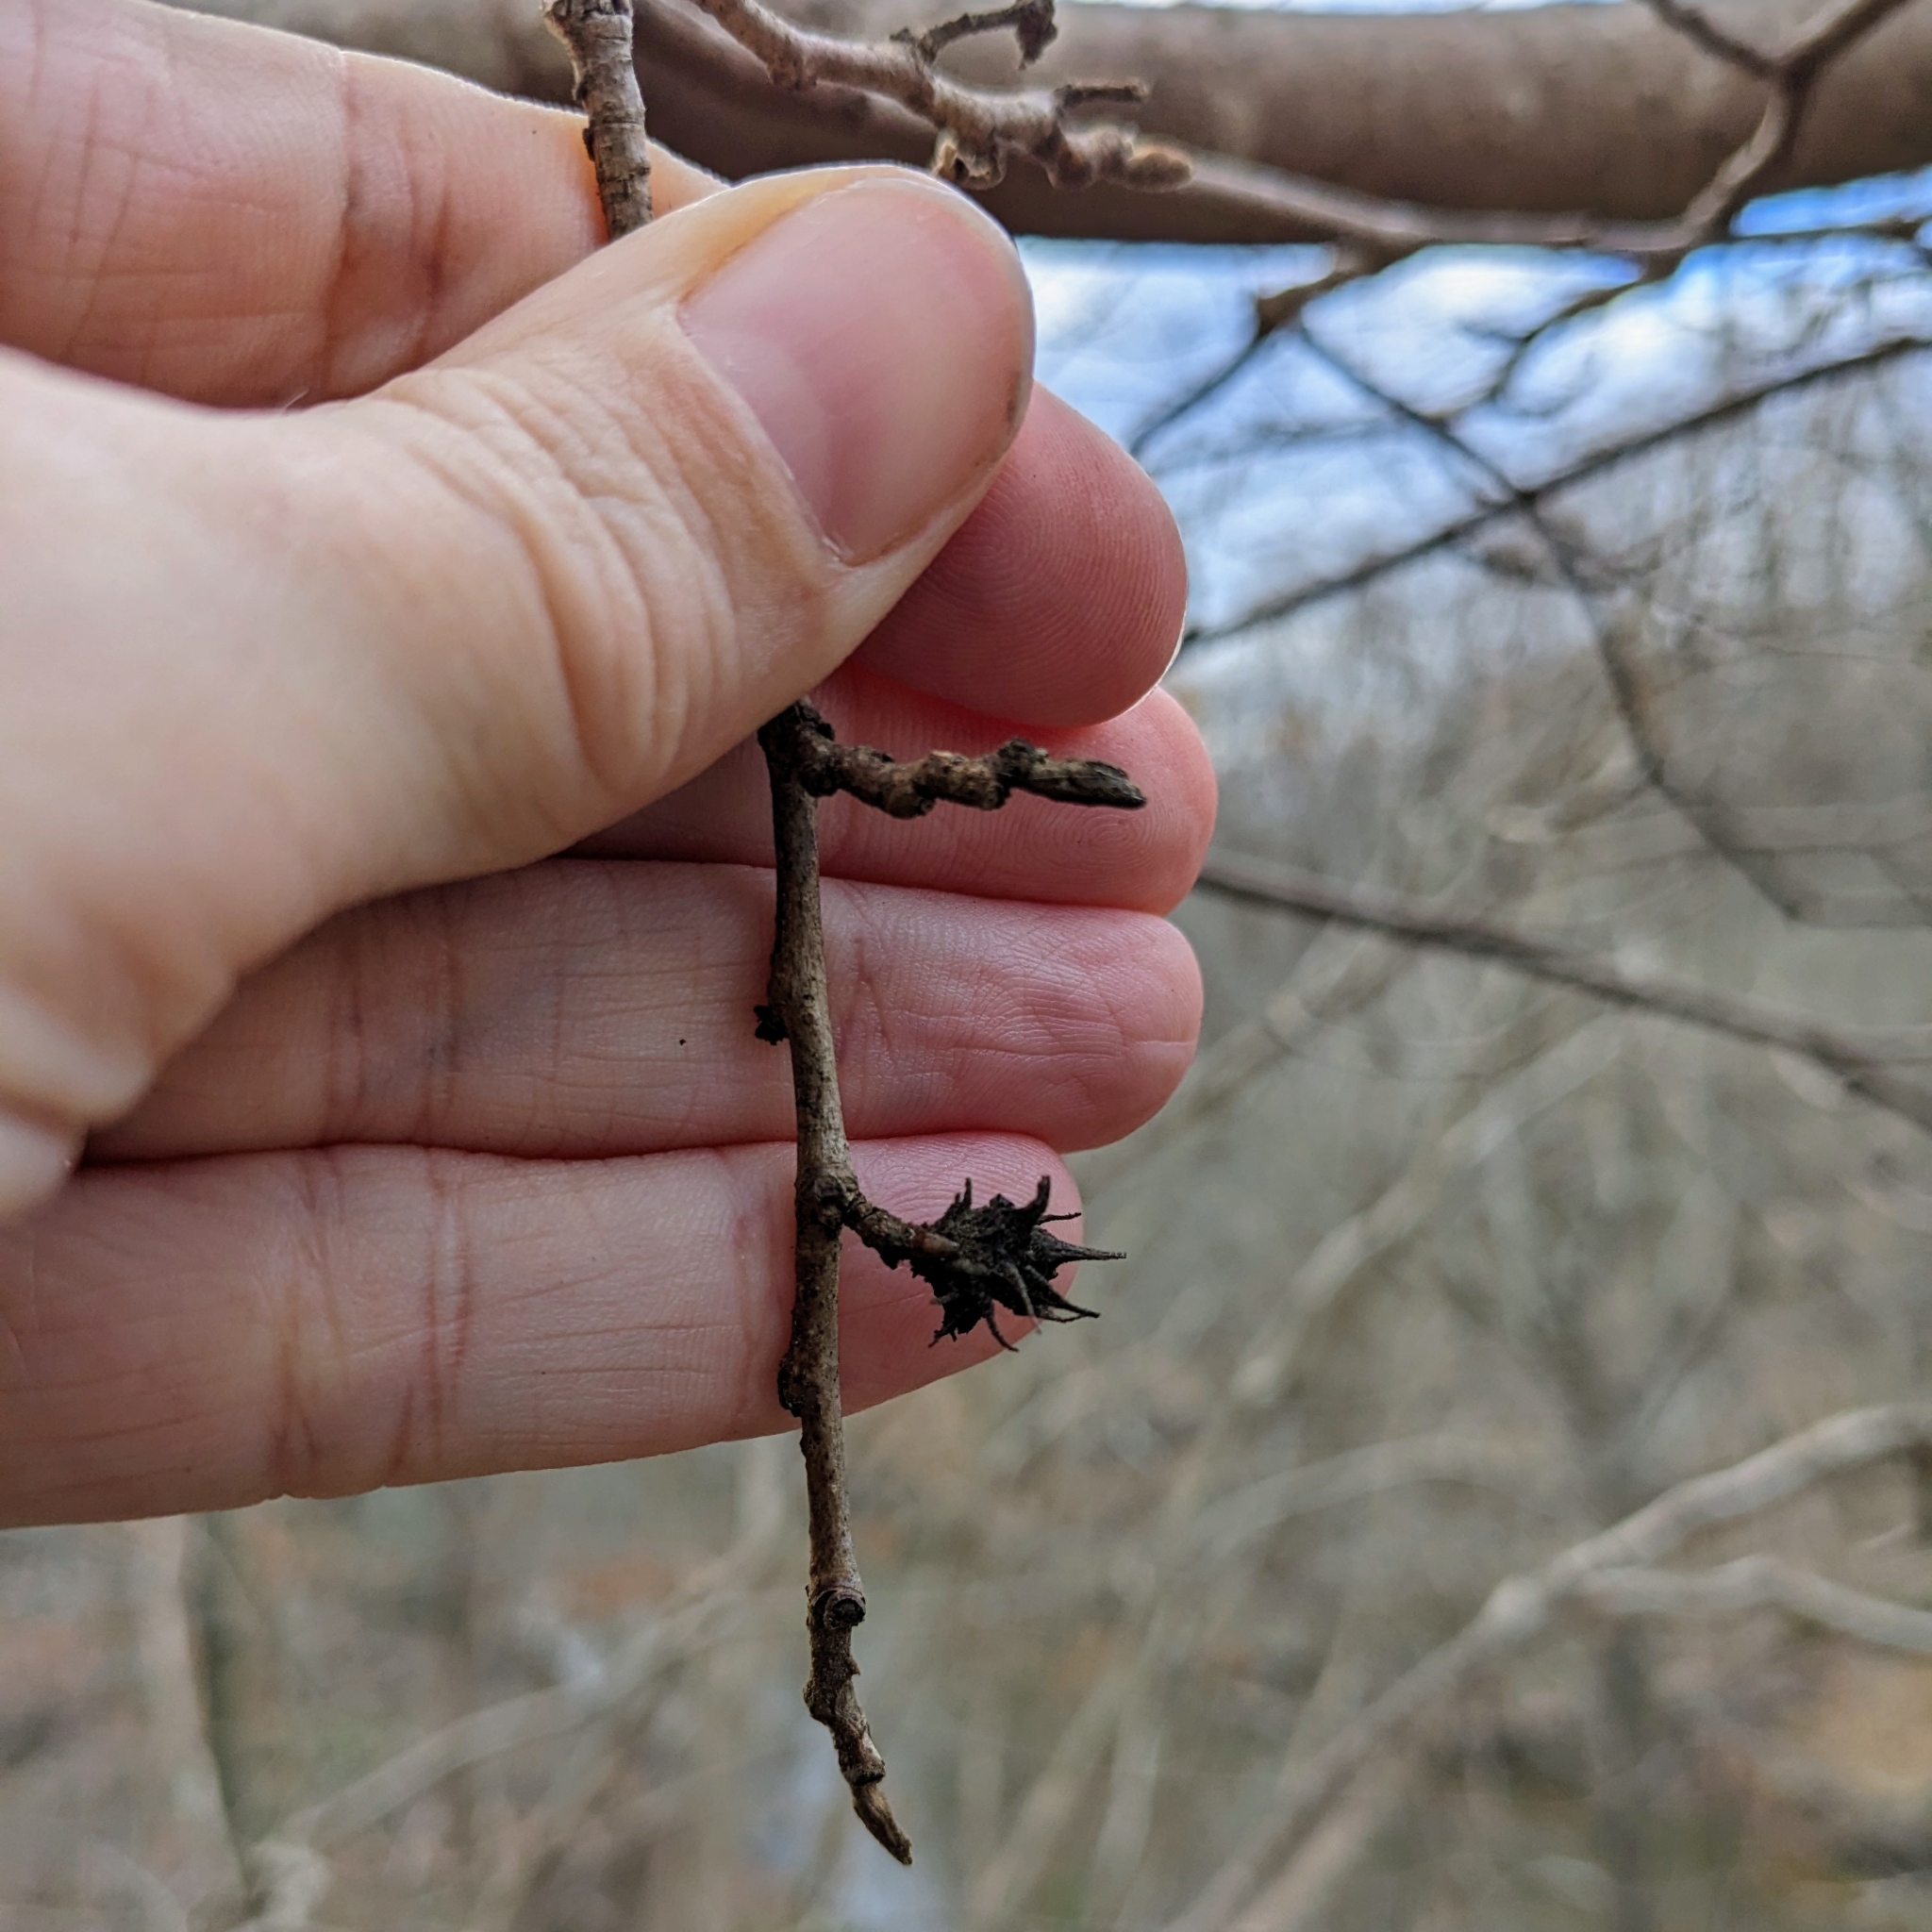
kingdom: Animalia
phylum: Arthropoda
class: Insecta
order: Hemiptera
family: Aphididae
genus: Hamamelistes
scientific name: Hamamelistes spinosus
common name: Witch hazel gall aphid
